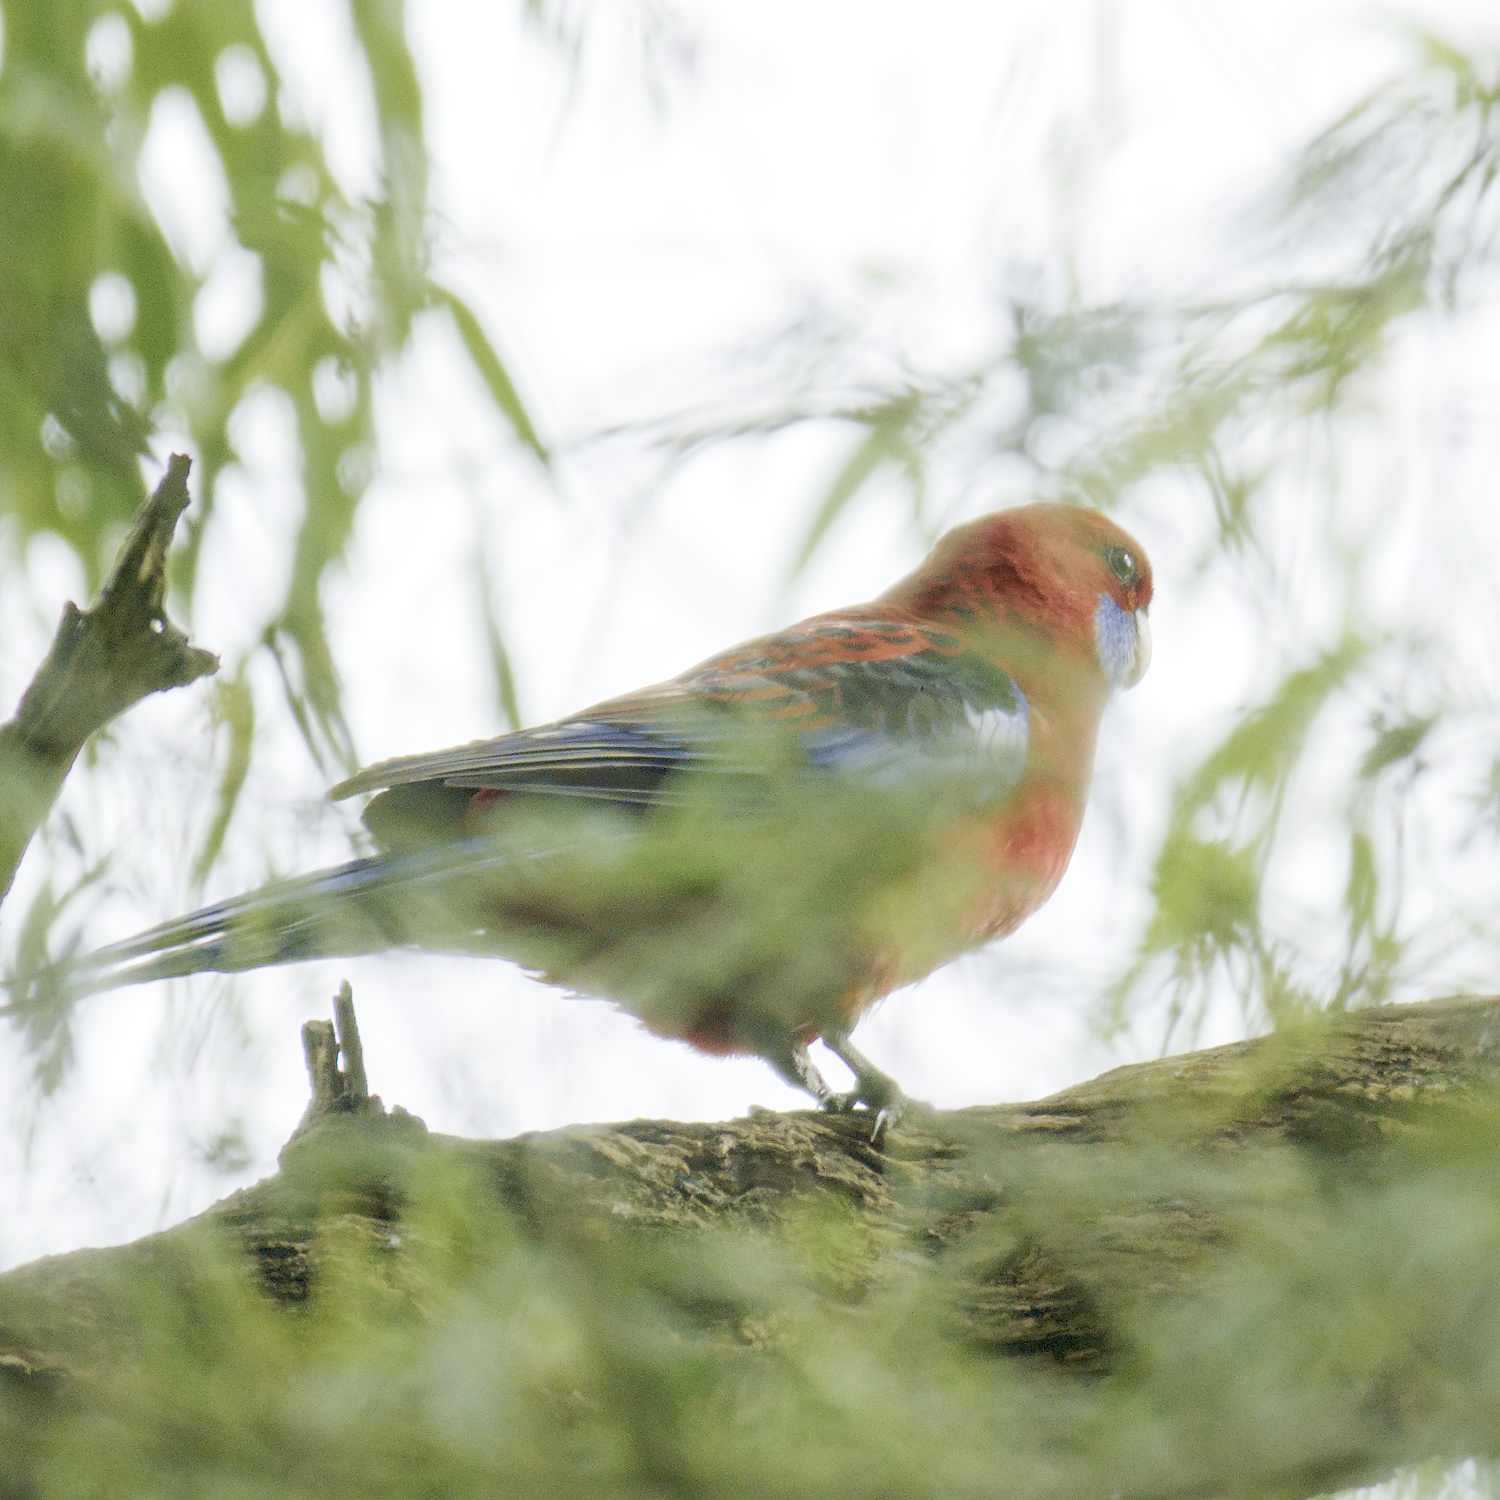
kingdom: Animalia
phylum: Chordata
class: Aves
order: Psittaciformes
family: Psittacidae
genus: Platycercus
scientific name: Platycercus elegans
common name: Crimson rosella
